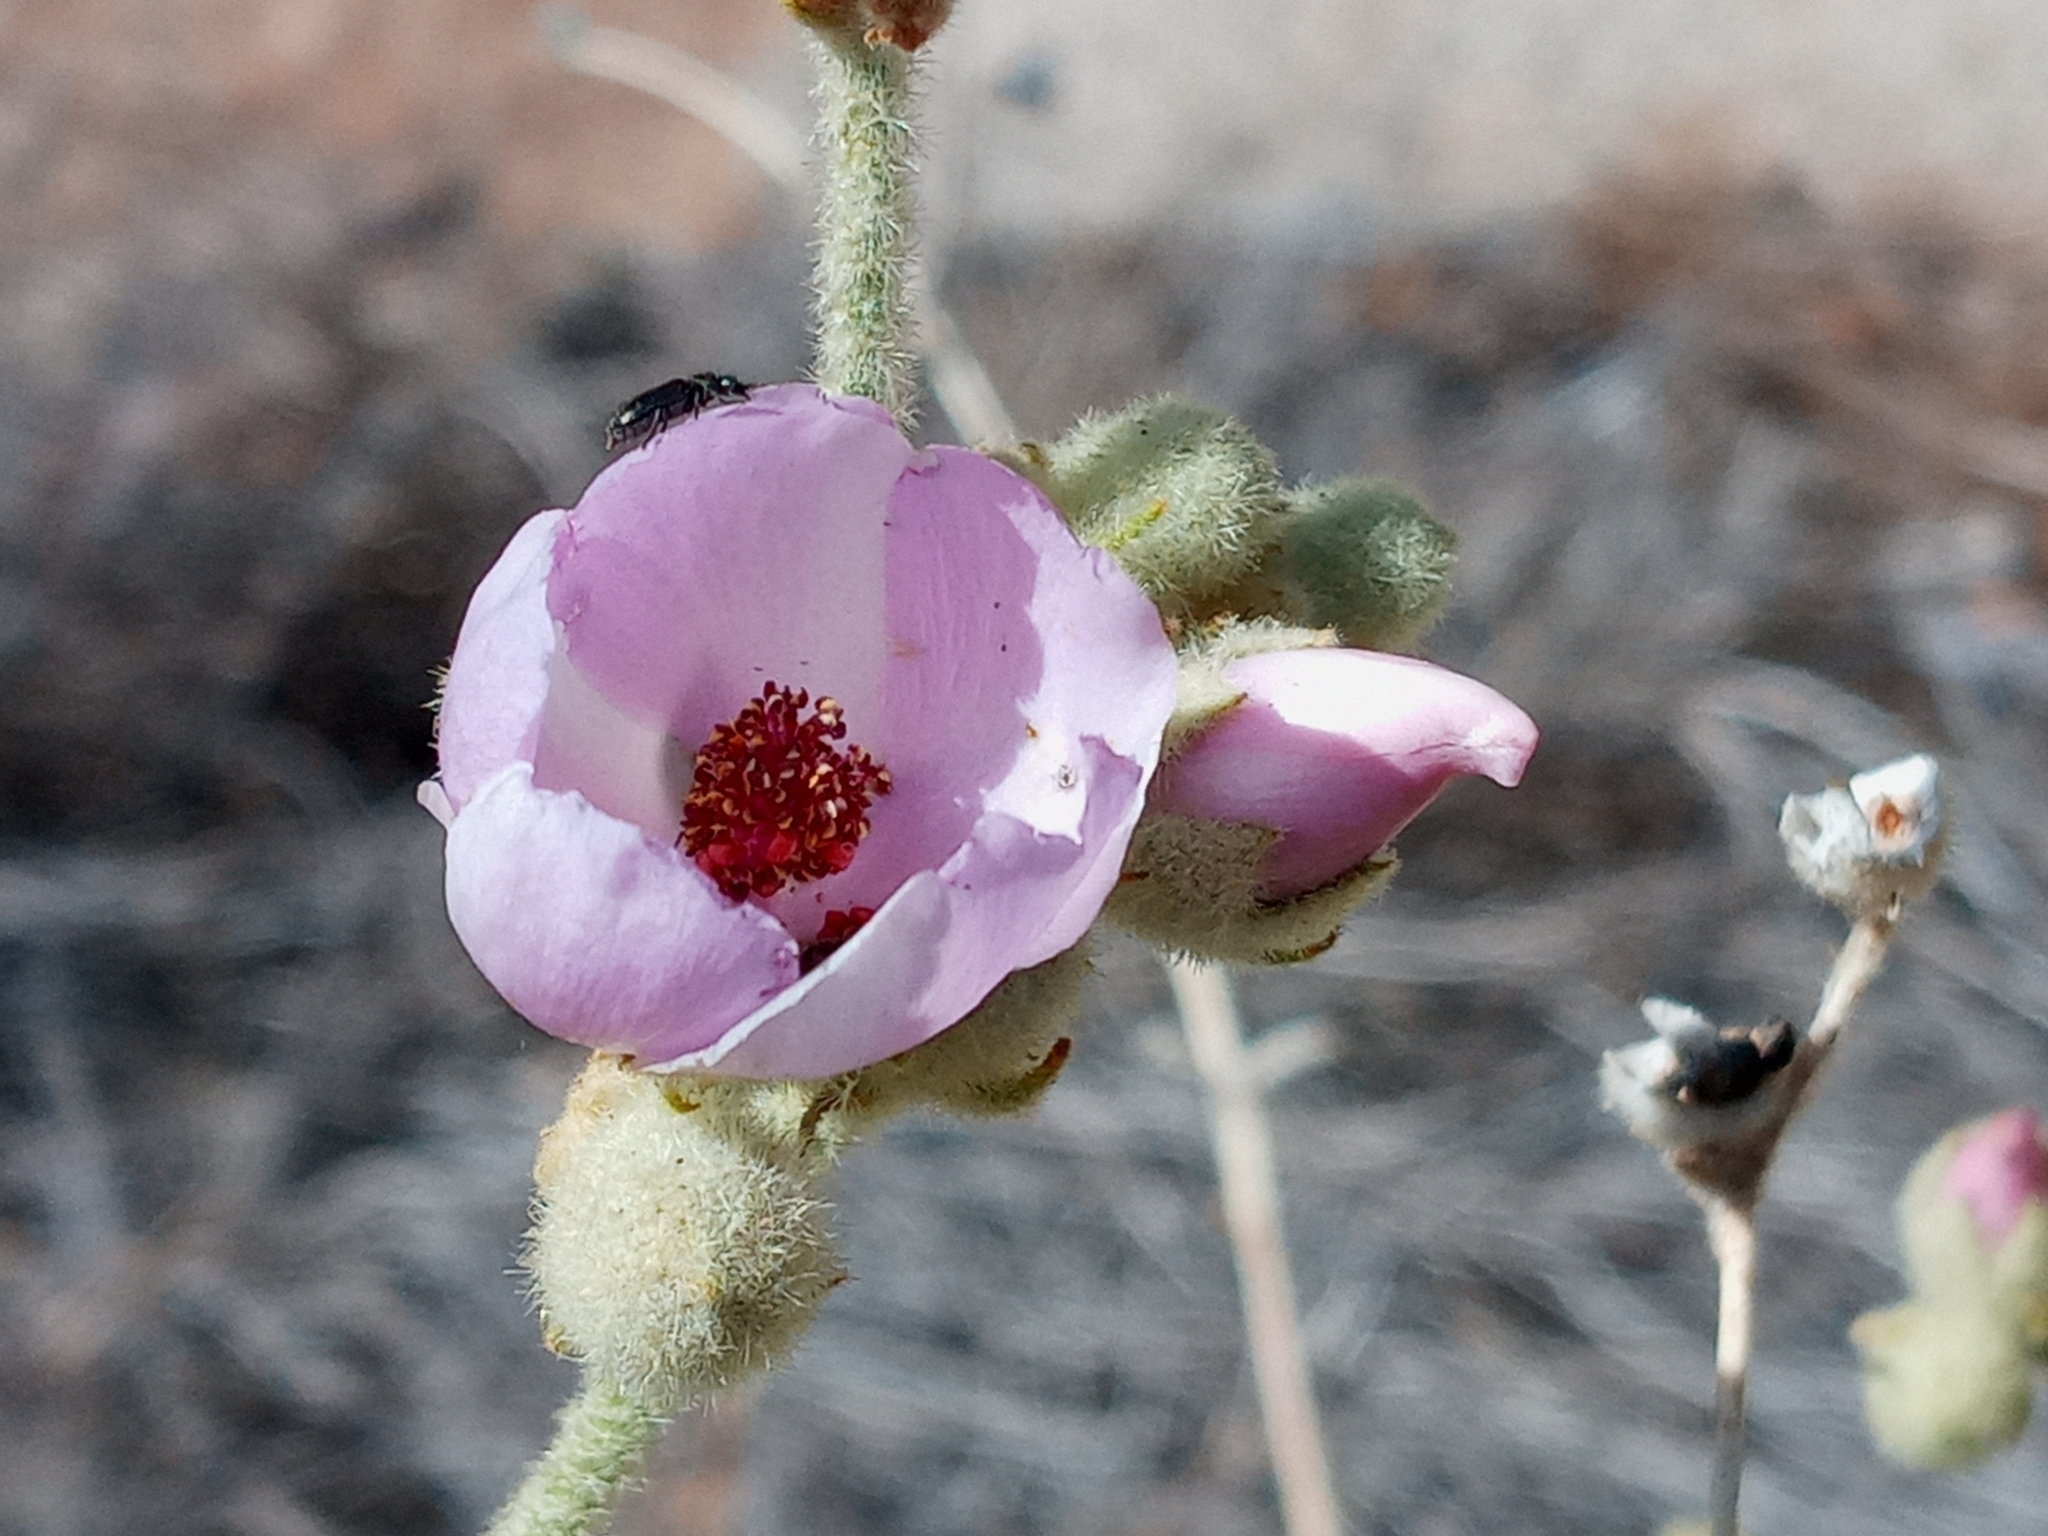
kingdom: Plantae
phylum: Tracheophyta
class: Magnoliopsida
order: Malvales
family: Malvaceae
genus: Malacothamnus
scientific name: Malacothamnus fremontii
